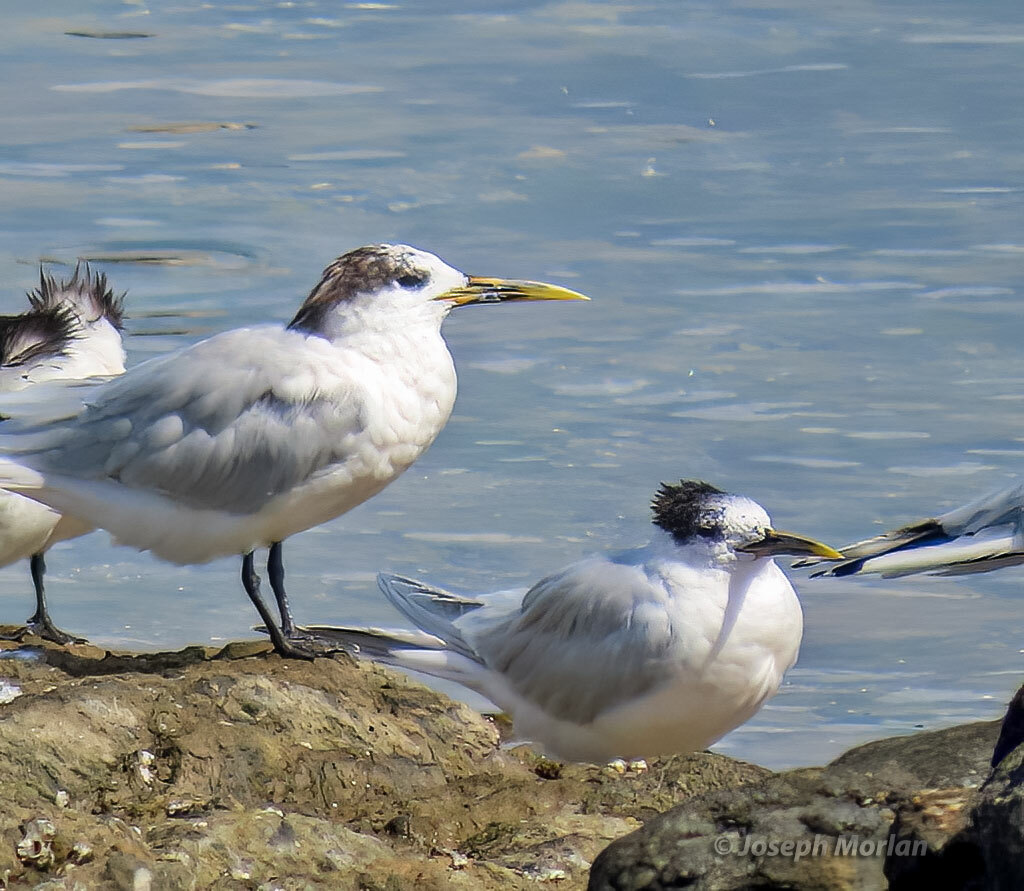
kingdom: Animalia
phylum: Chordata
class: Aves
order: Charadriiformes
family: Laridae
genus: Thalasseus
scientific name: Thalasseus sandvicensis
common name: Sandwich tern
